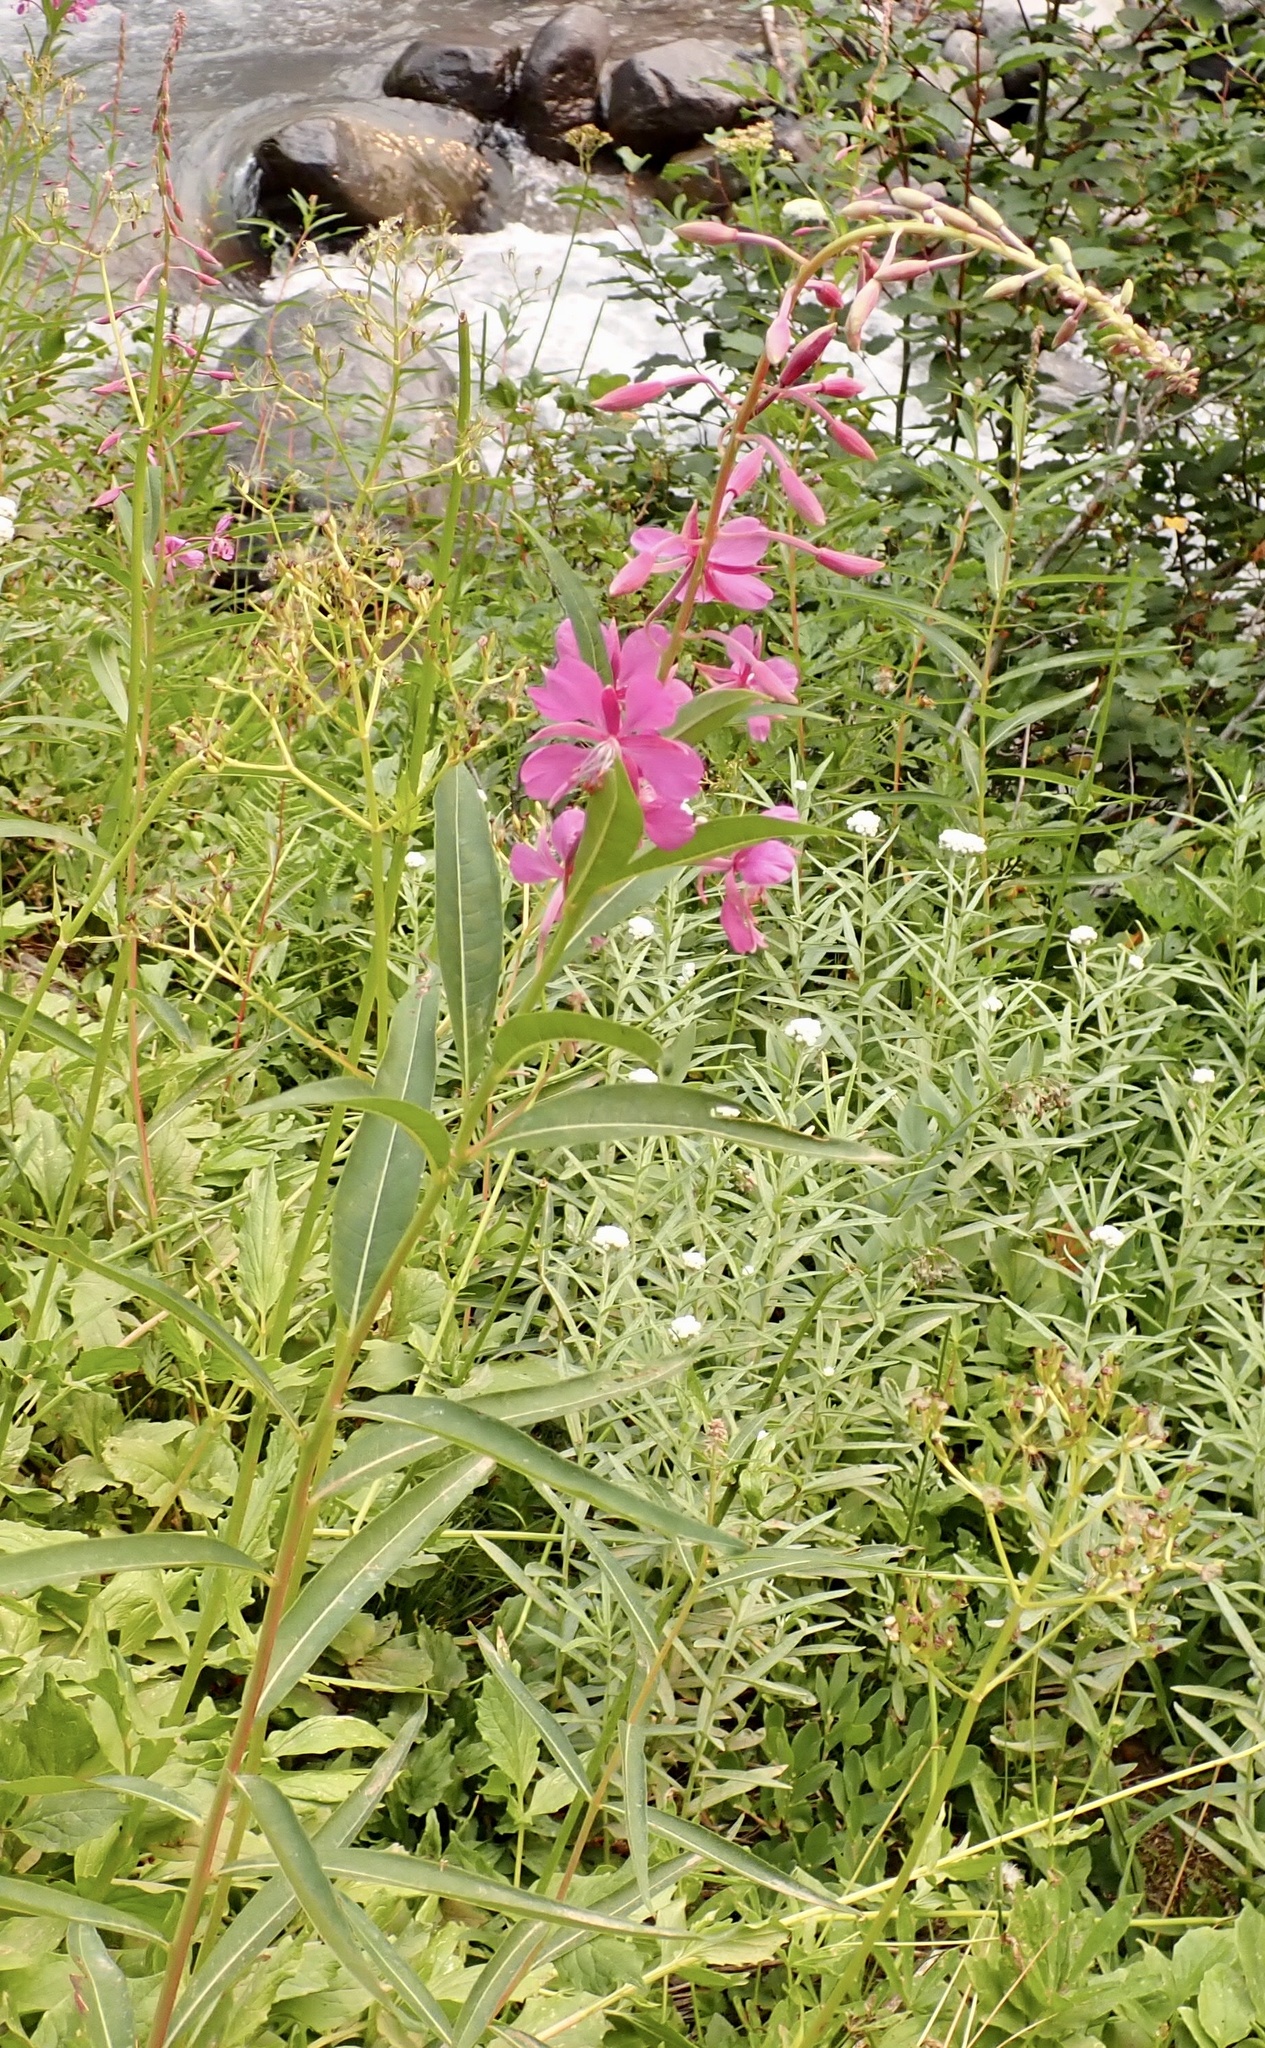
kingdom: Plantae
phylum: Tracheophyta
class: Magnoliopsida
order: Myrtales
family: Onagraceae
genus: Chamaenerion
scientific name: Chamaenerion angustifolium
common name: Fireweed
